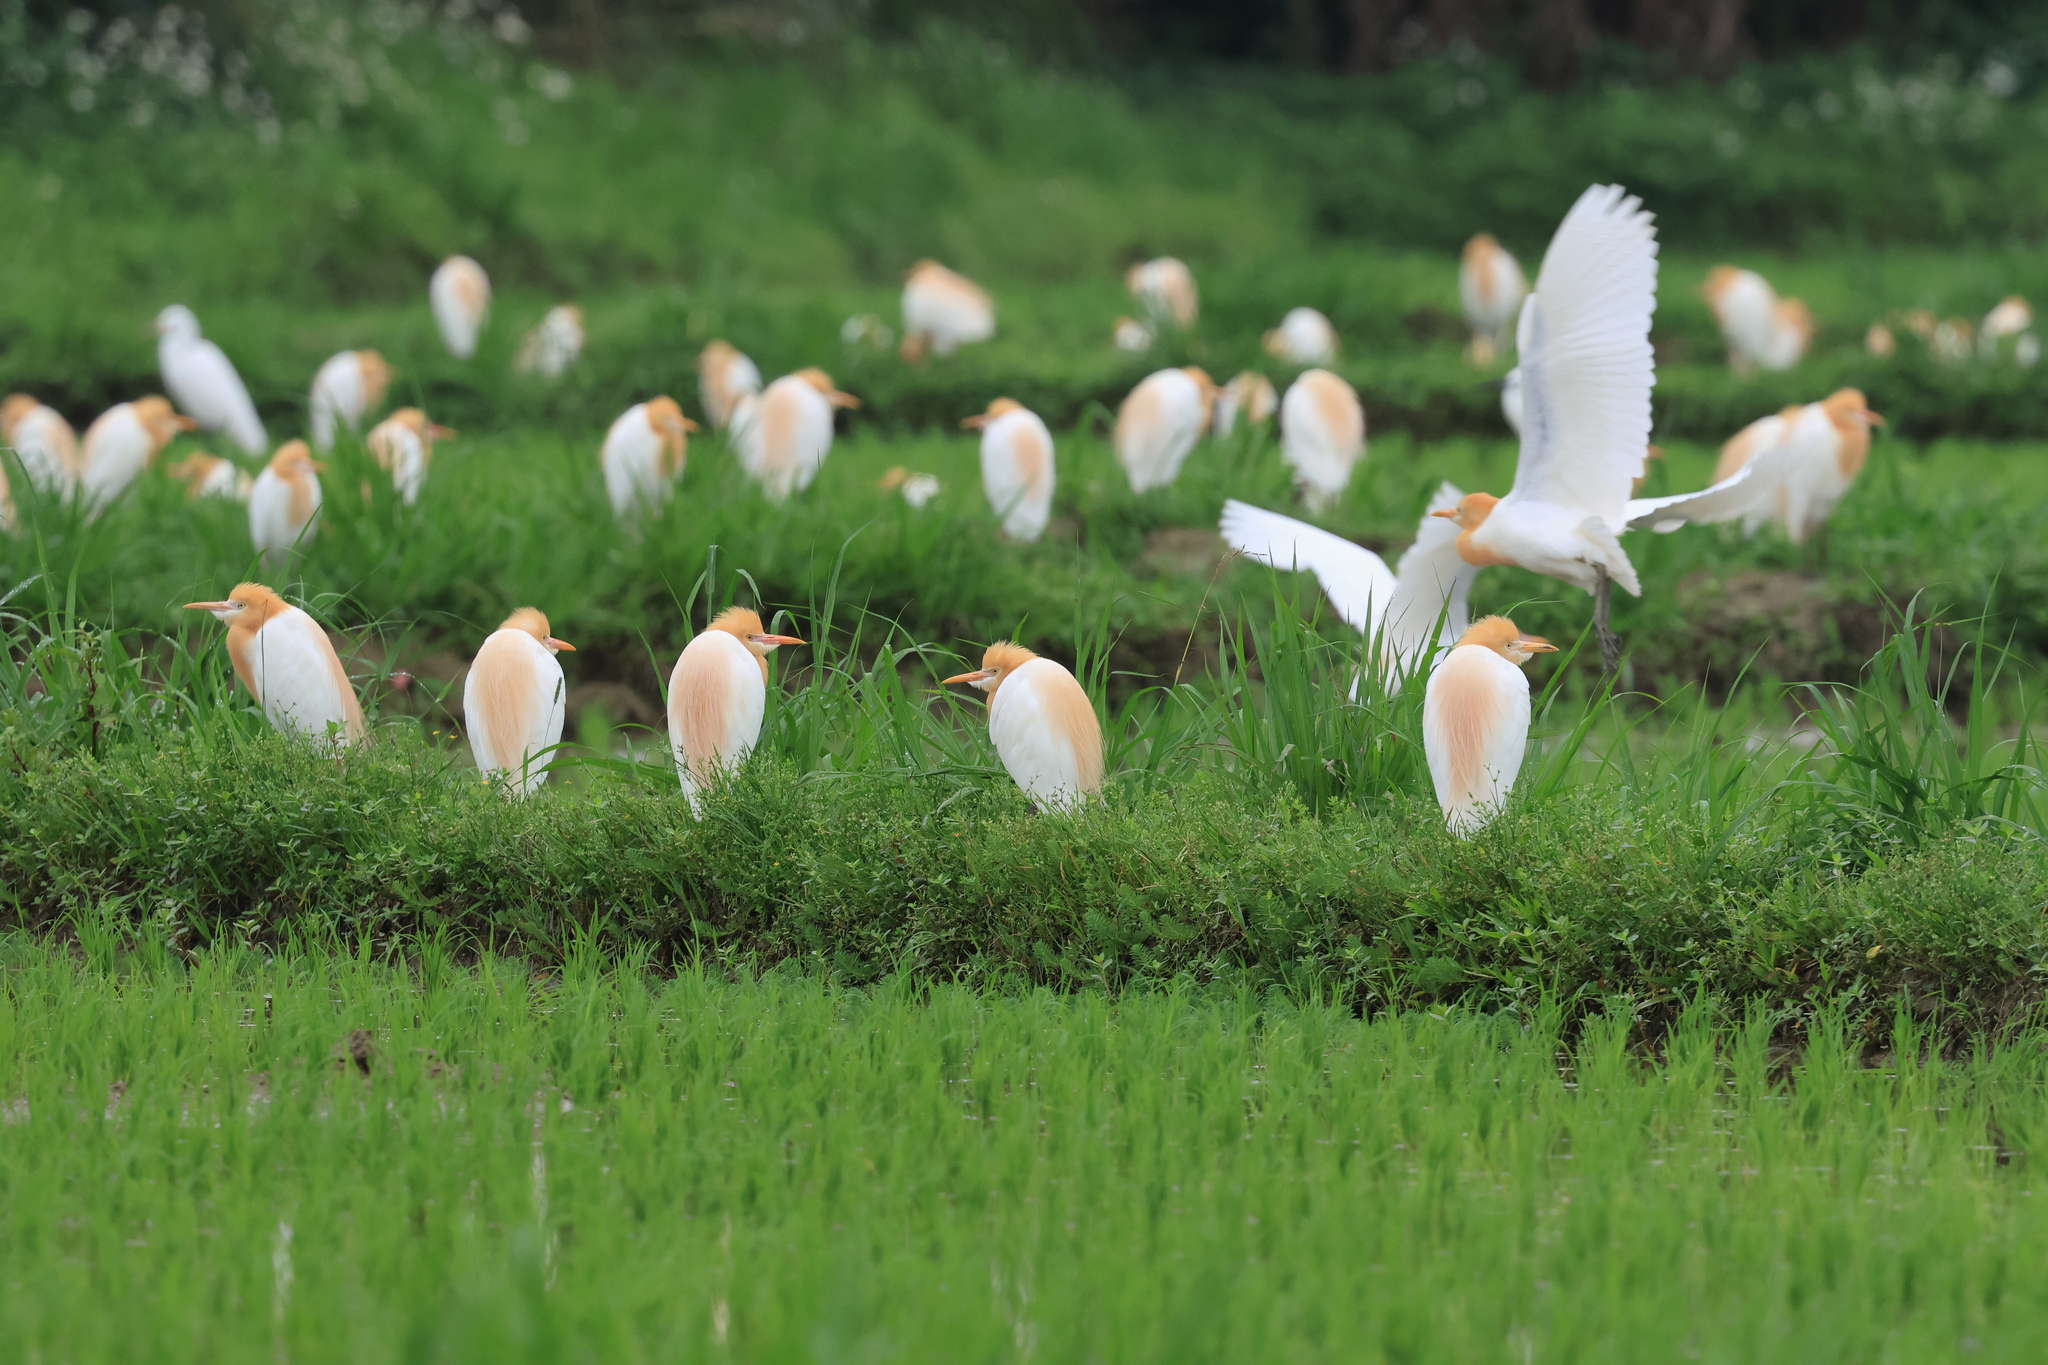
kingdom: Animalia
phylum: Chordata
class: Aves
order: Pelecaniformes
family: Ardeidae
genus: Bubulcus
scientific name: Bubulcus coromandus
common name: Eastern cattle egret
